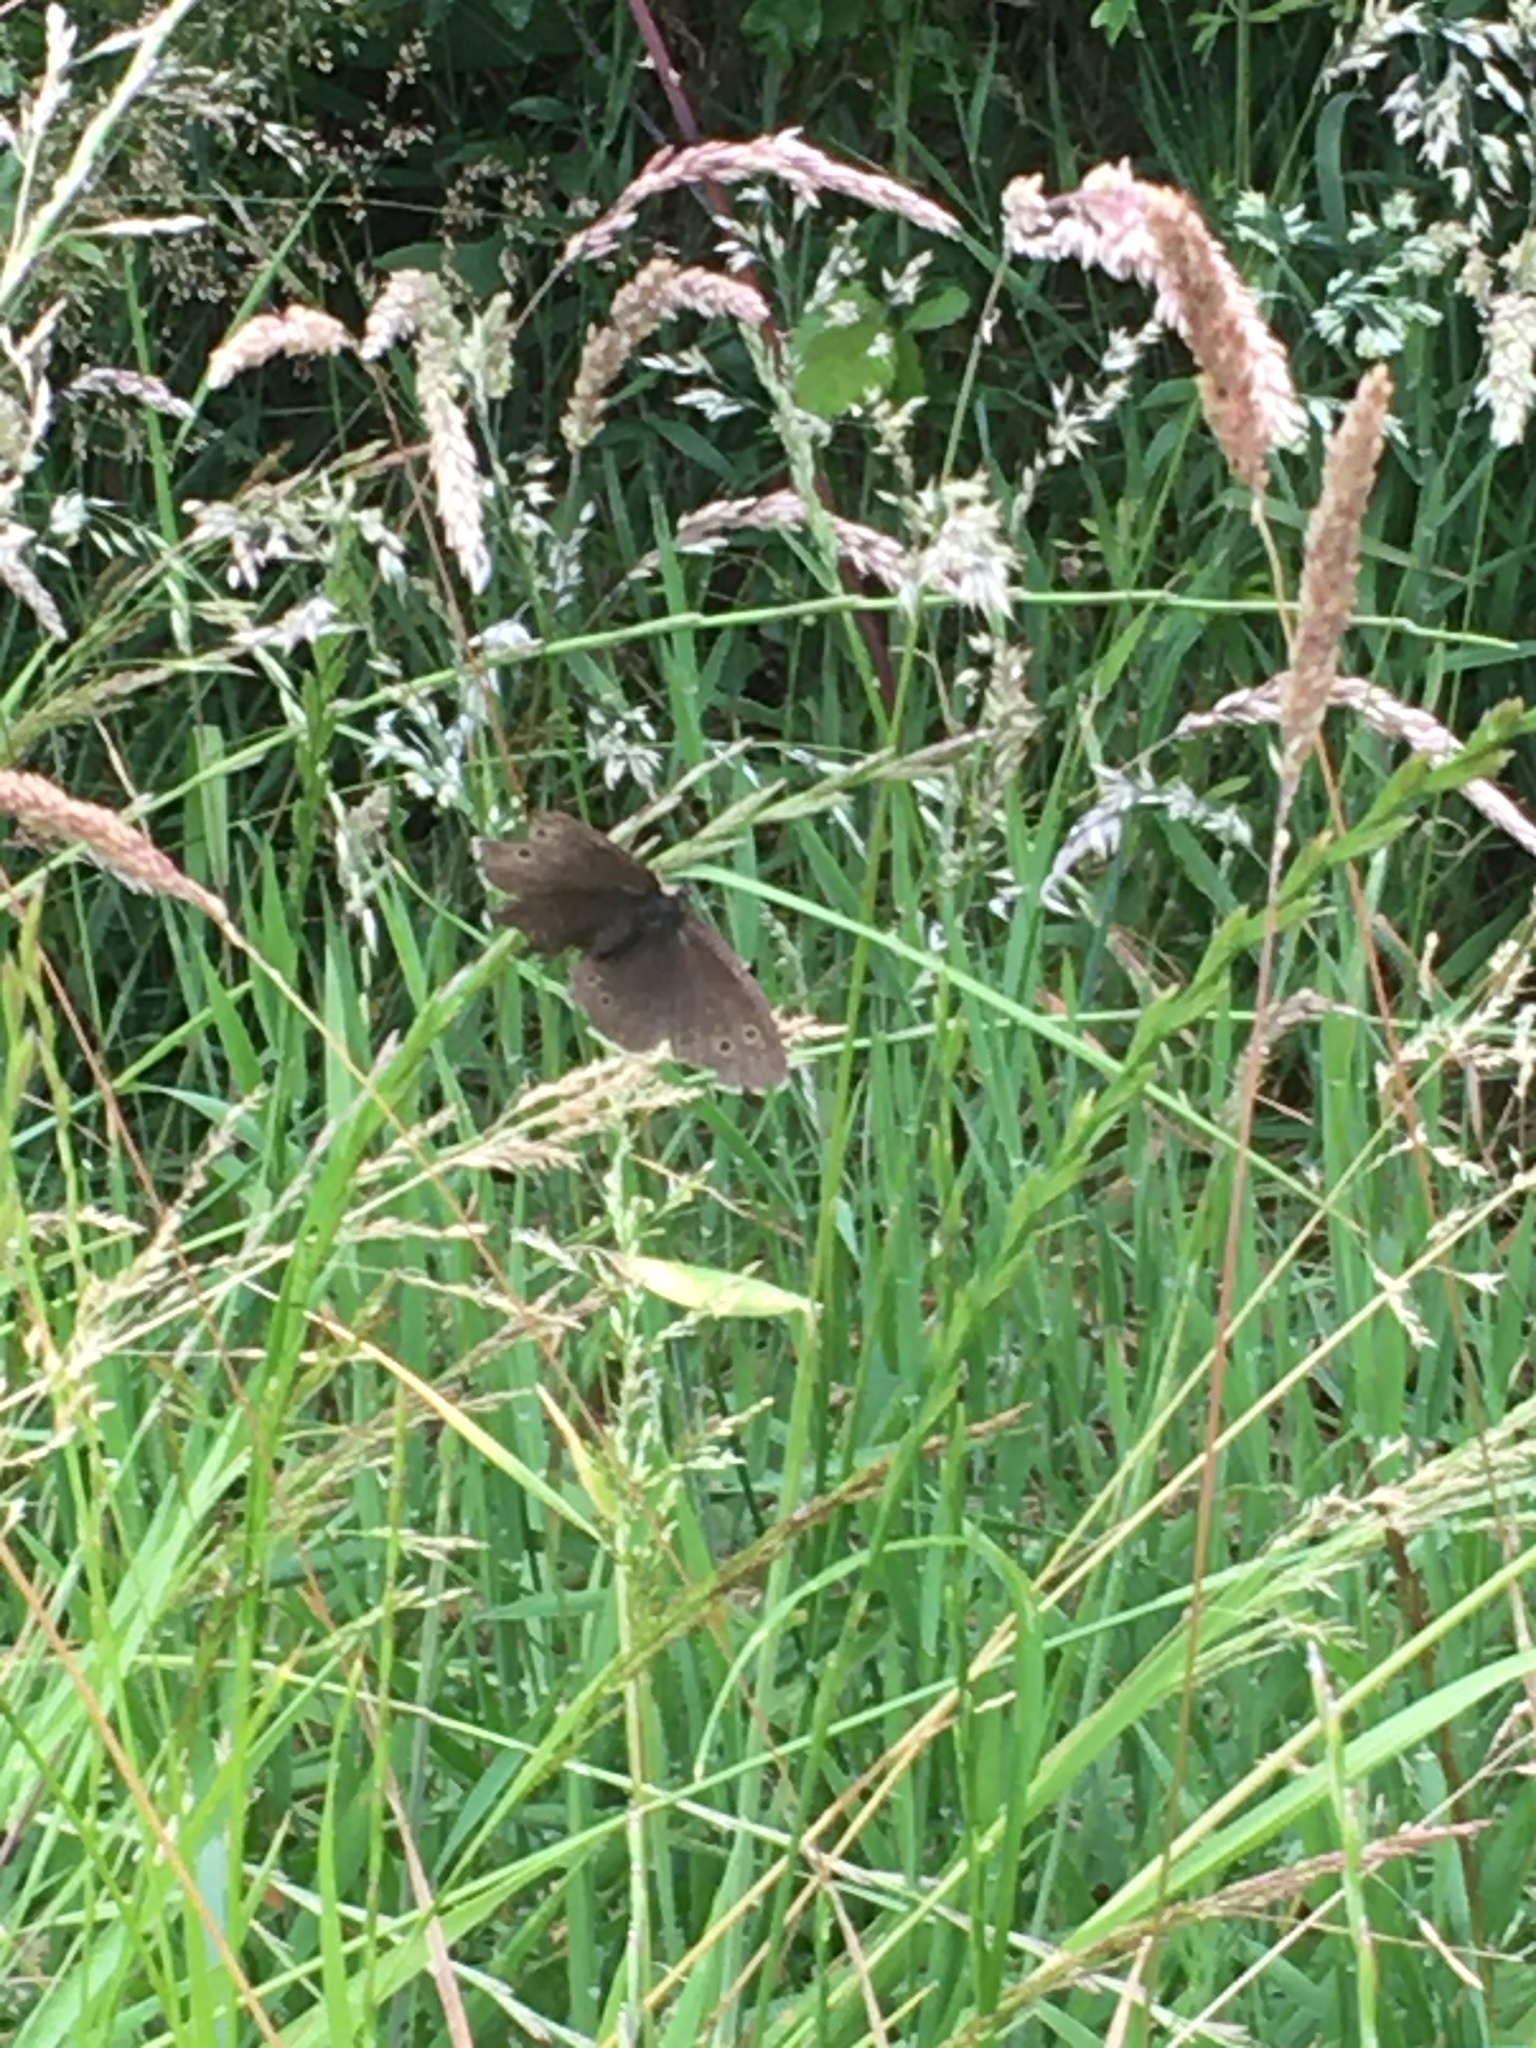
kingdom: Animalia
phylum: Arthropoda
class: Insecta
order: Lepidoptera
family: Nymphalidae
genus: Aphantopus
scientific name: Aphantopus hyperantus
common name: Ringlet
